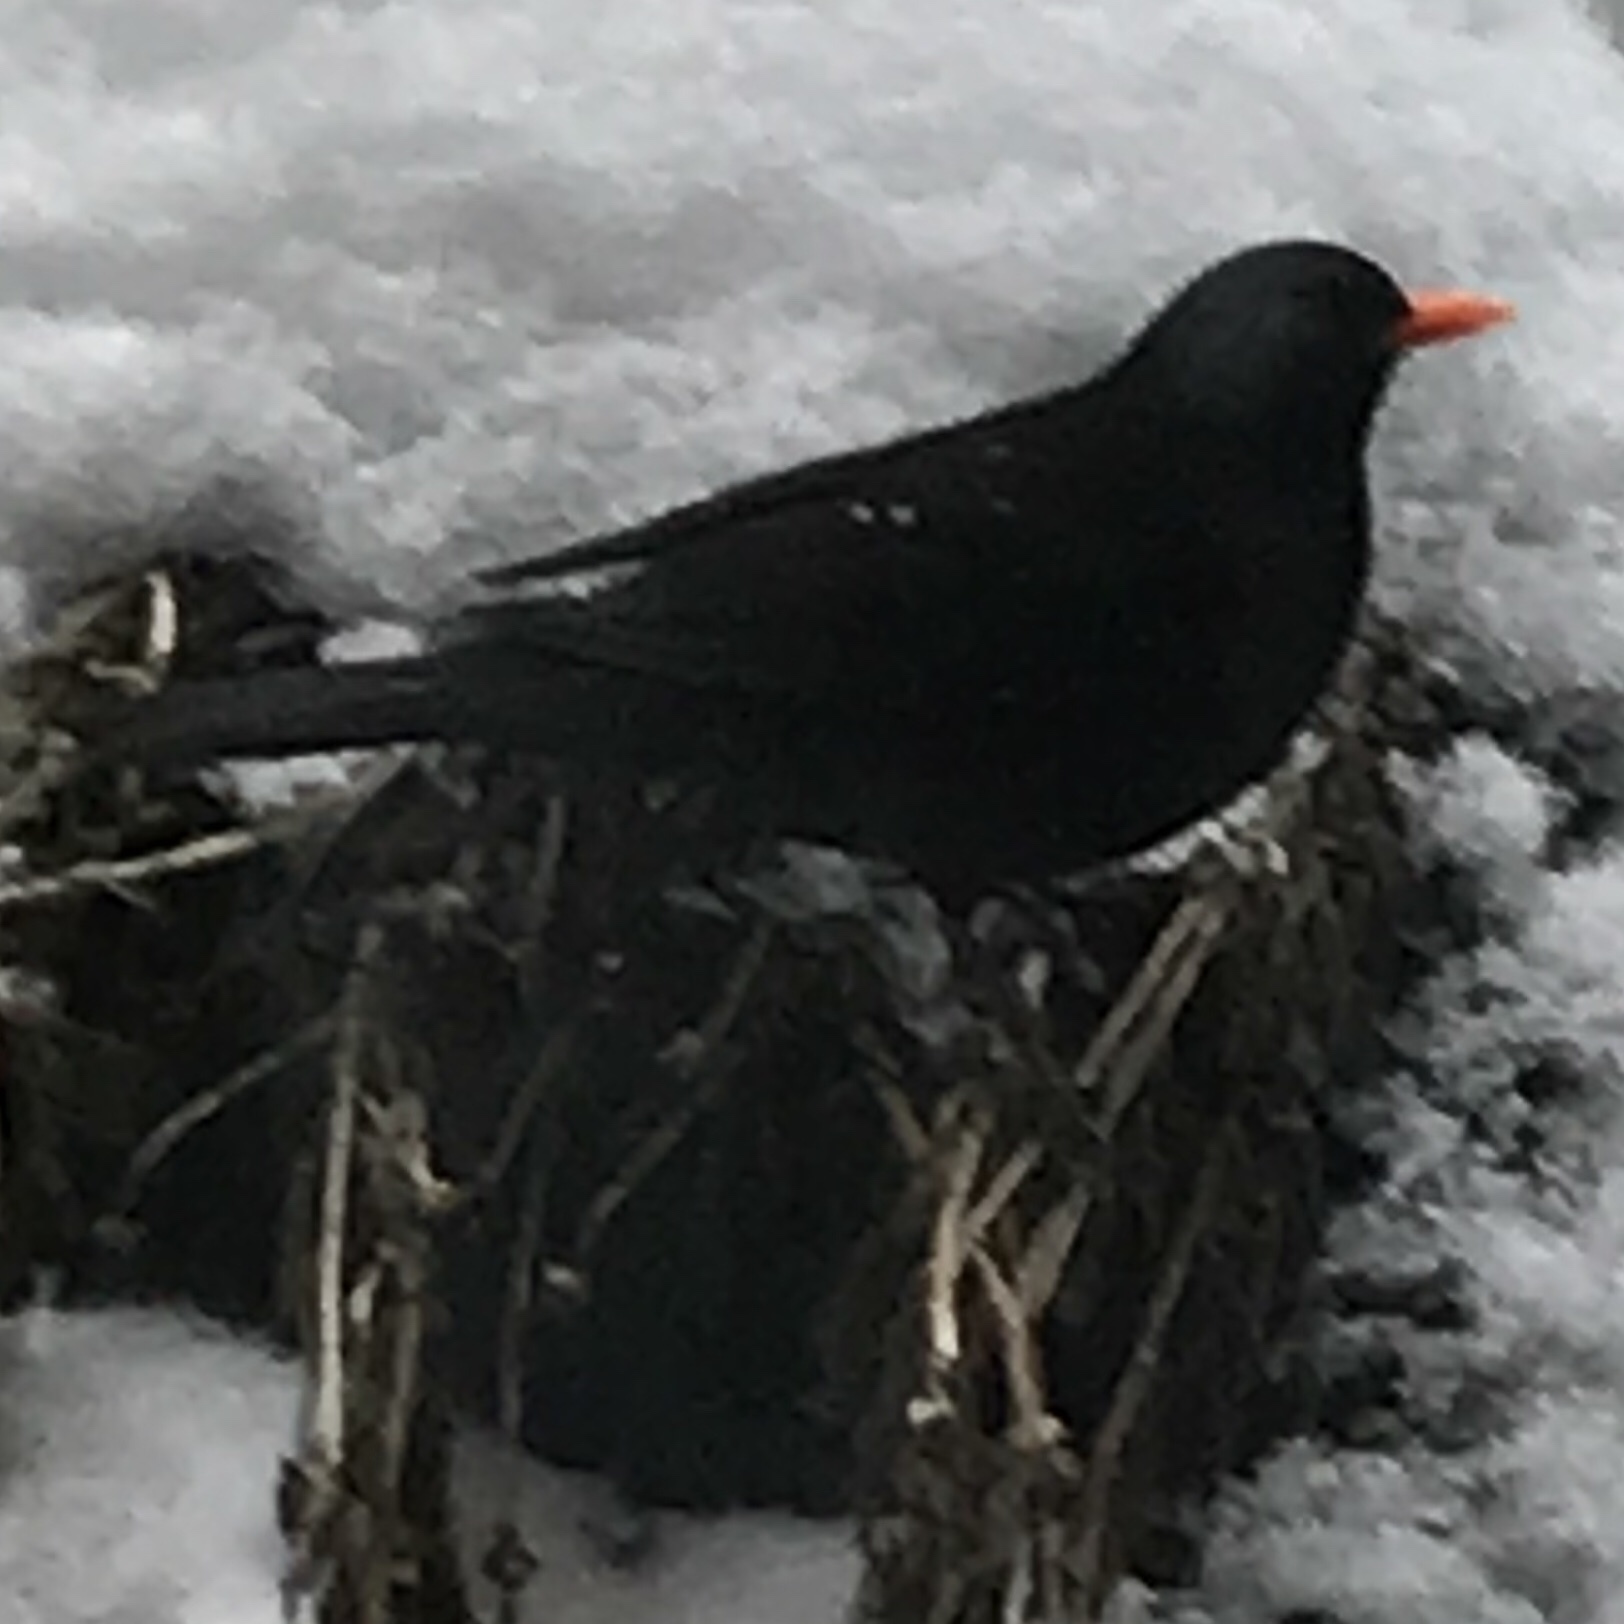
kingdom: Animalia
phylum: Chordata
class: Aves
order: Passeriformes
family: Turdidae
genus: Turdus
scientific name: Turdus merula
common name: Common blackbird
